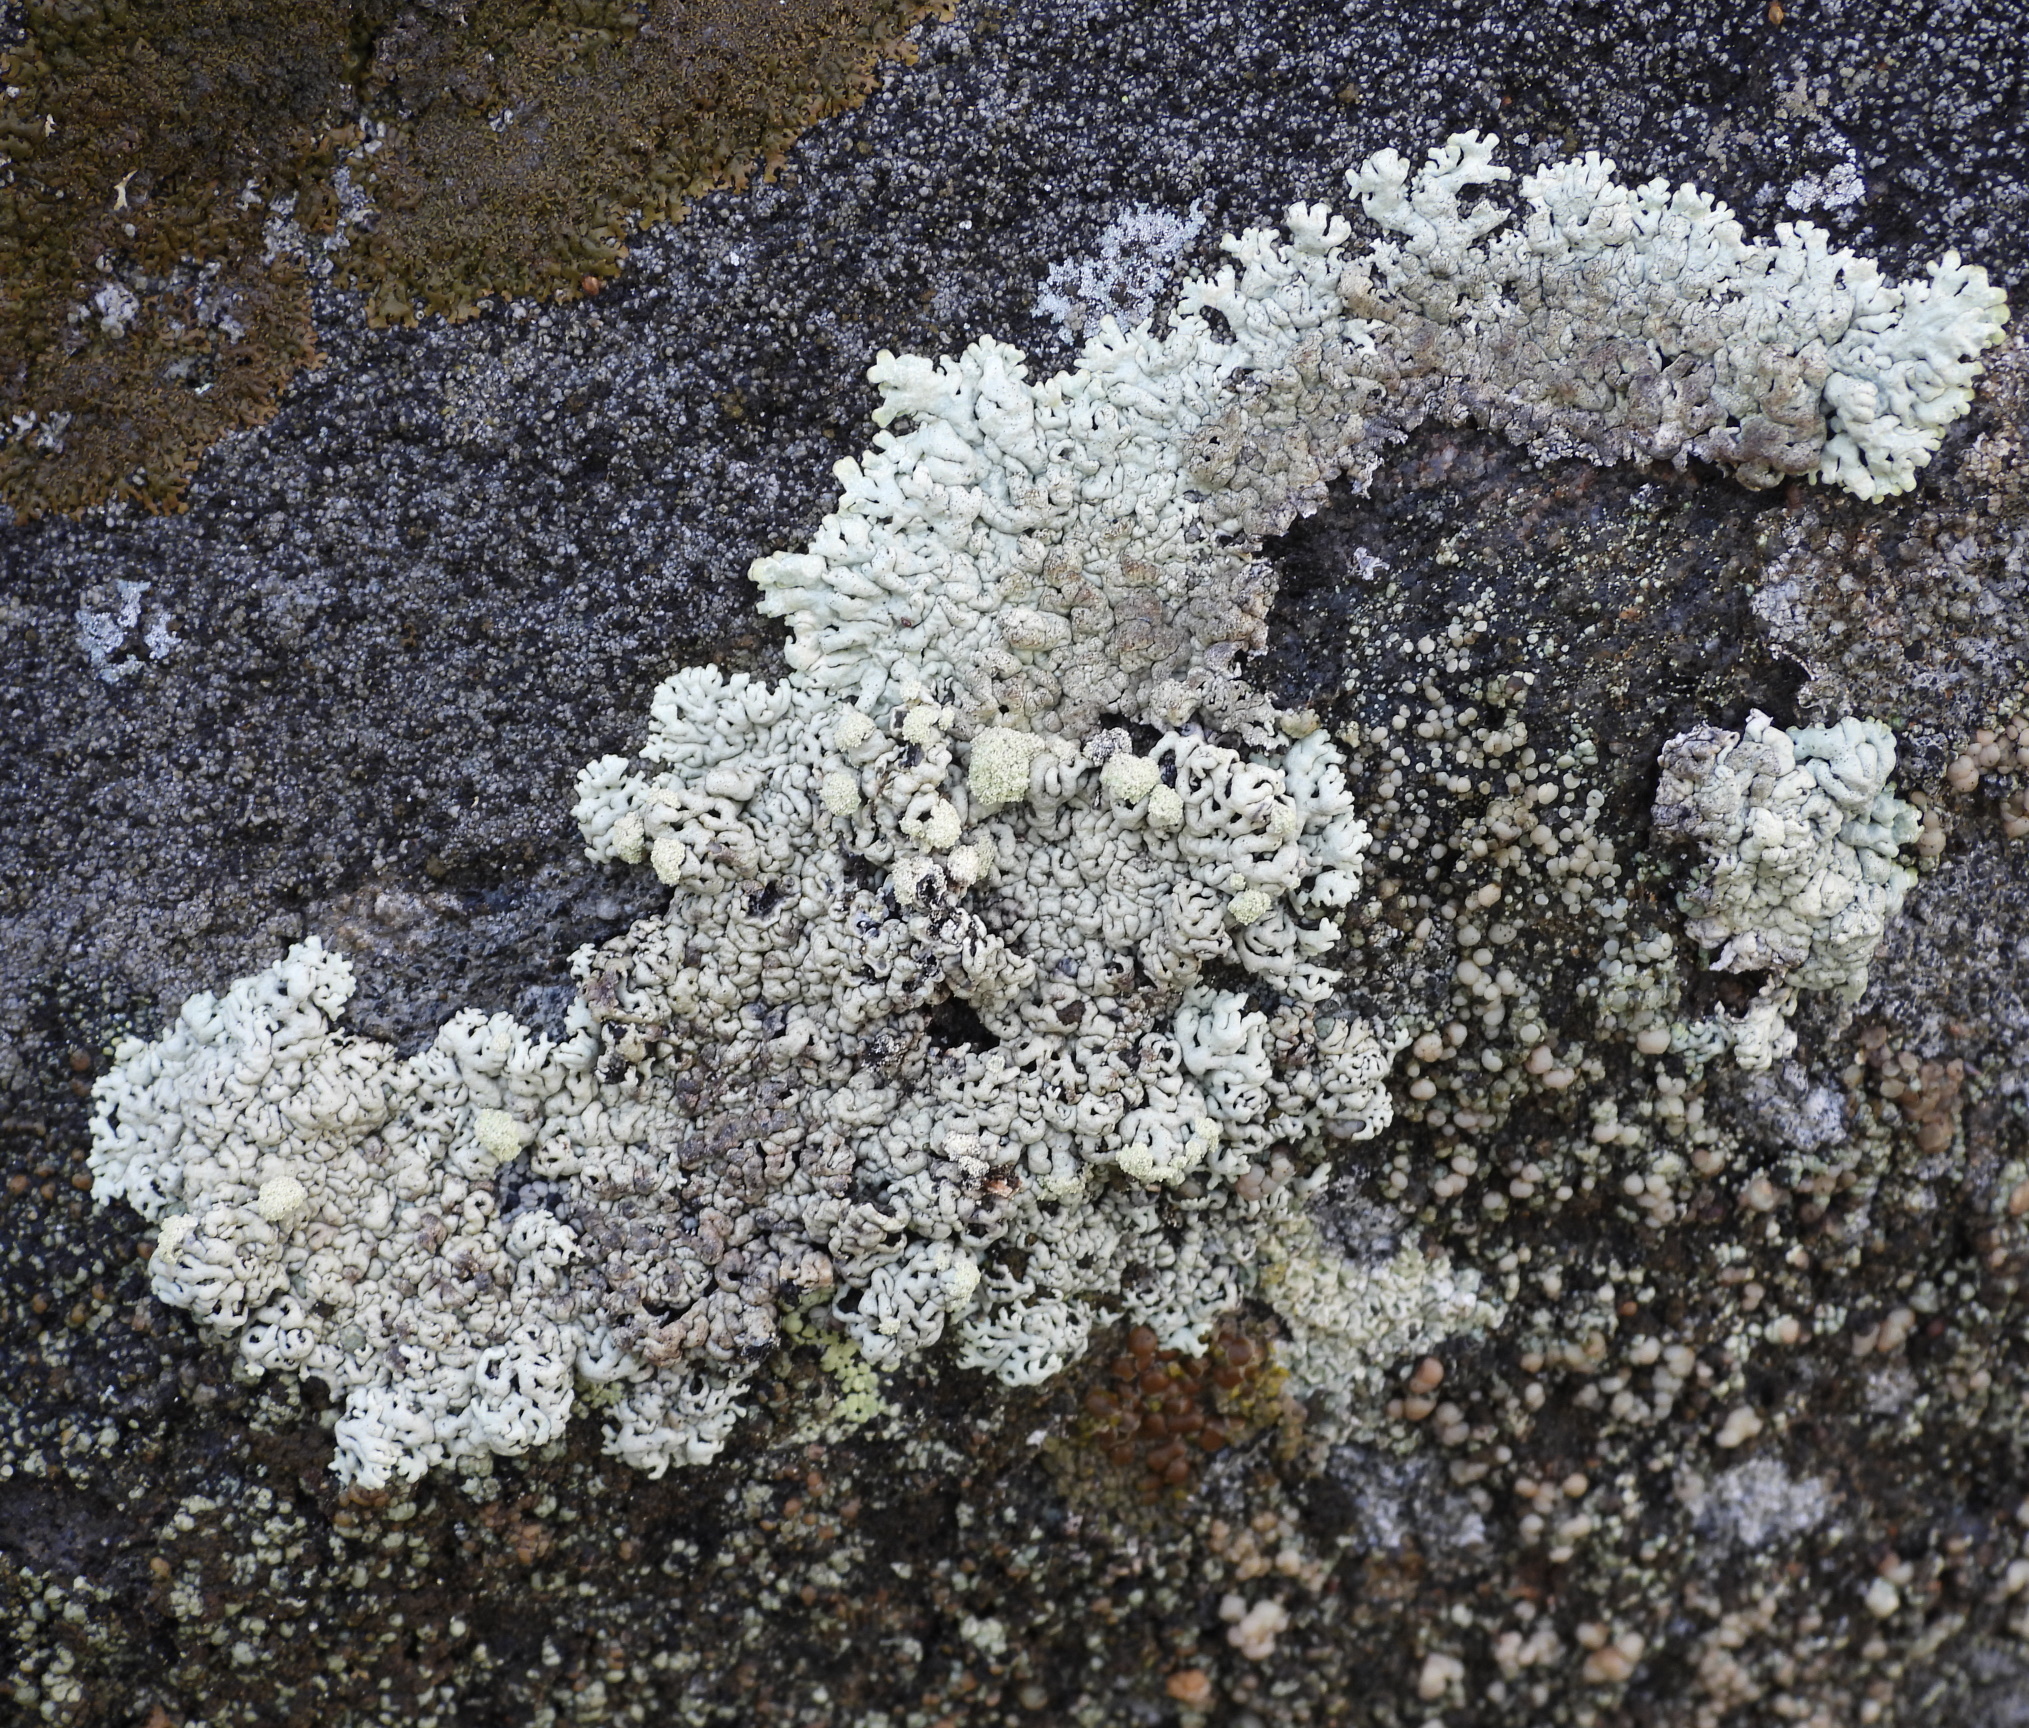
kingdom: Fungi
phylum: Ascomycota
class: Lecanoromycetes
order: Lecanorales
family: Parmeliaceae
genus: Arctoparmelia
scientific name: Arctoparmelia incurva
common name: Bent ring lichen
